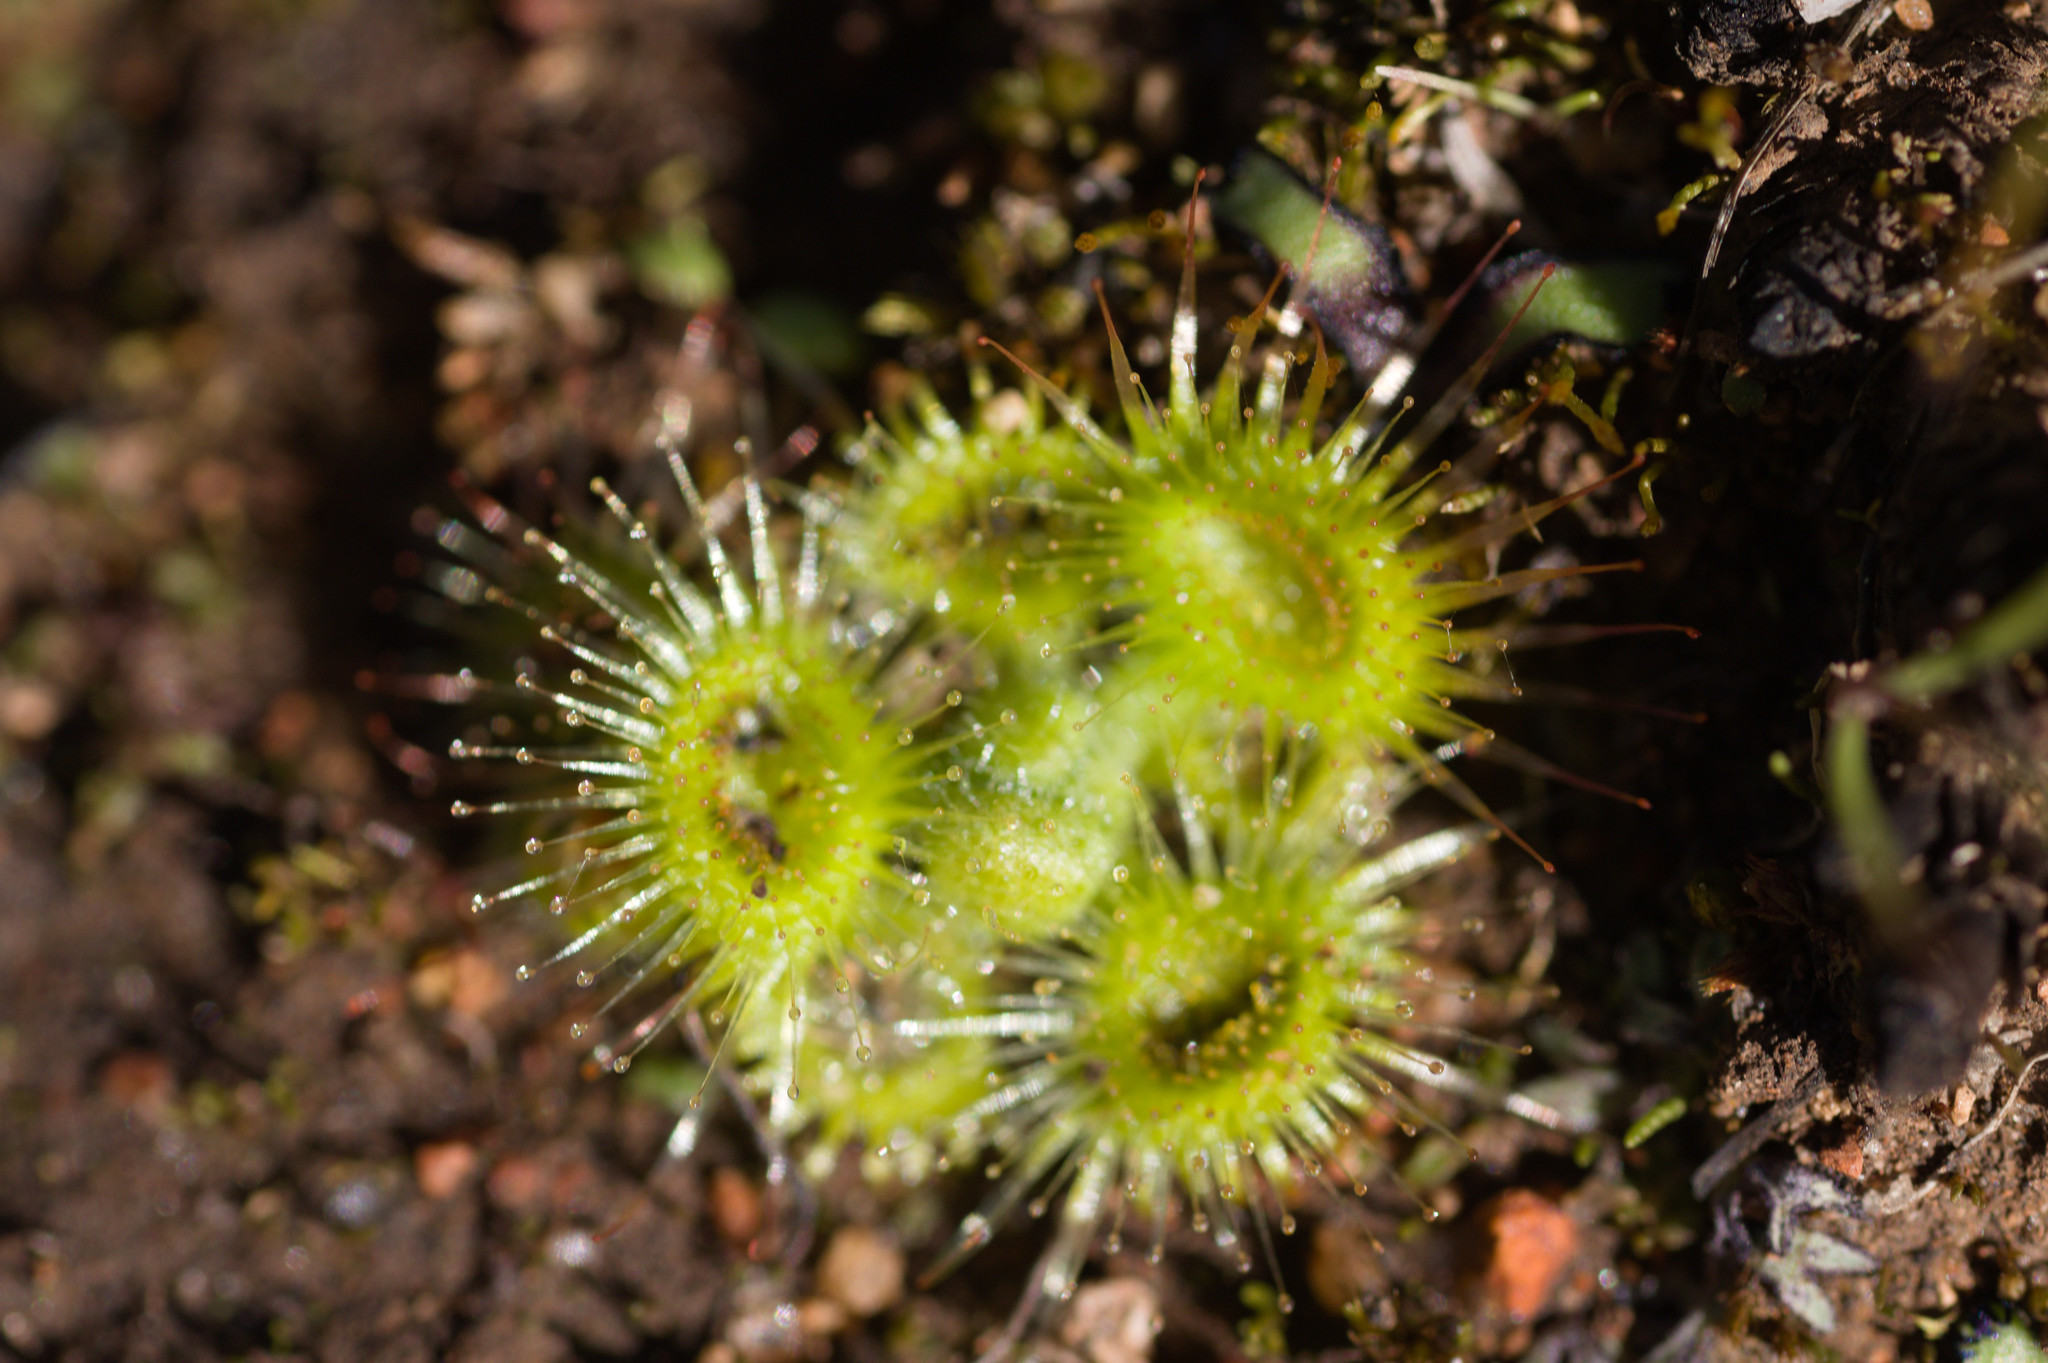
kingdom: Plantae
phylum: Tracheophyta
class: Magnoliopsida
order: Caryophyllales
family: Droseraceae
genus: Drosera
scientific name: Drosera glanduligera
